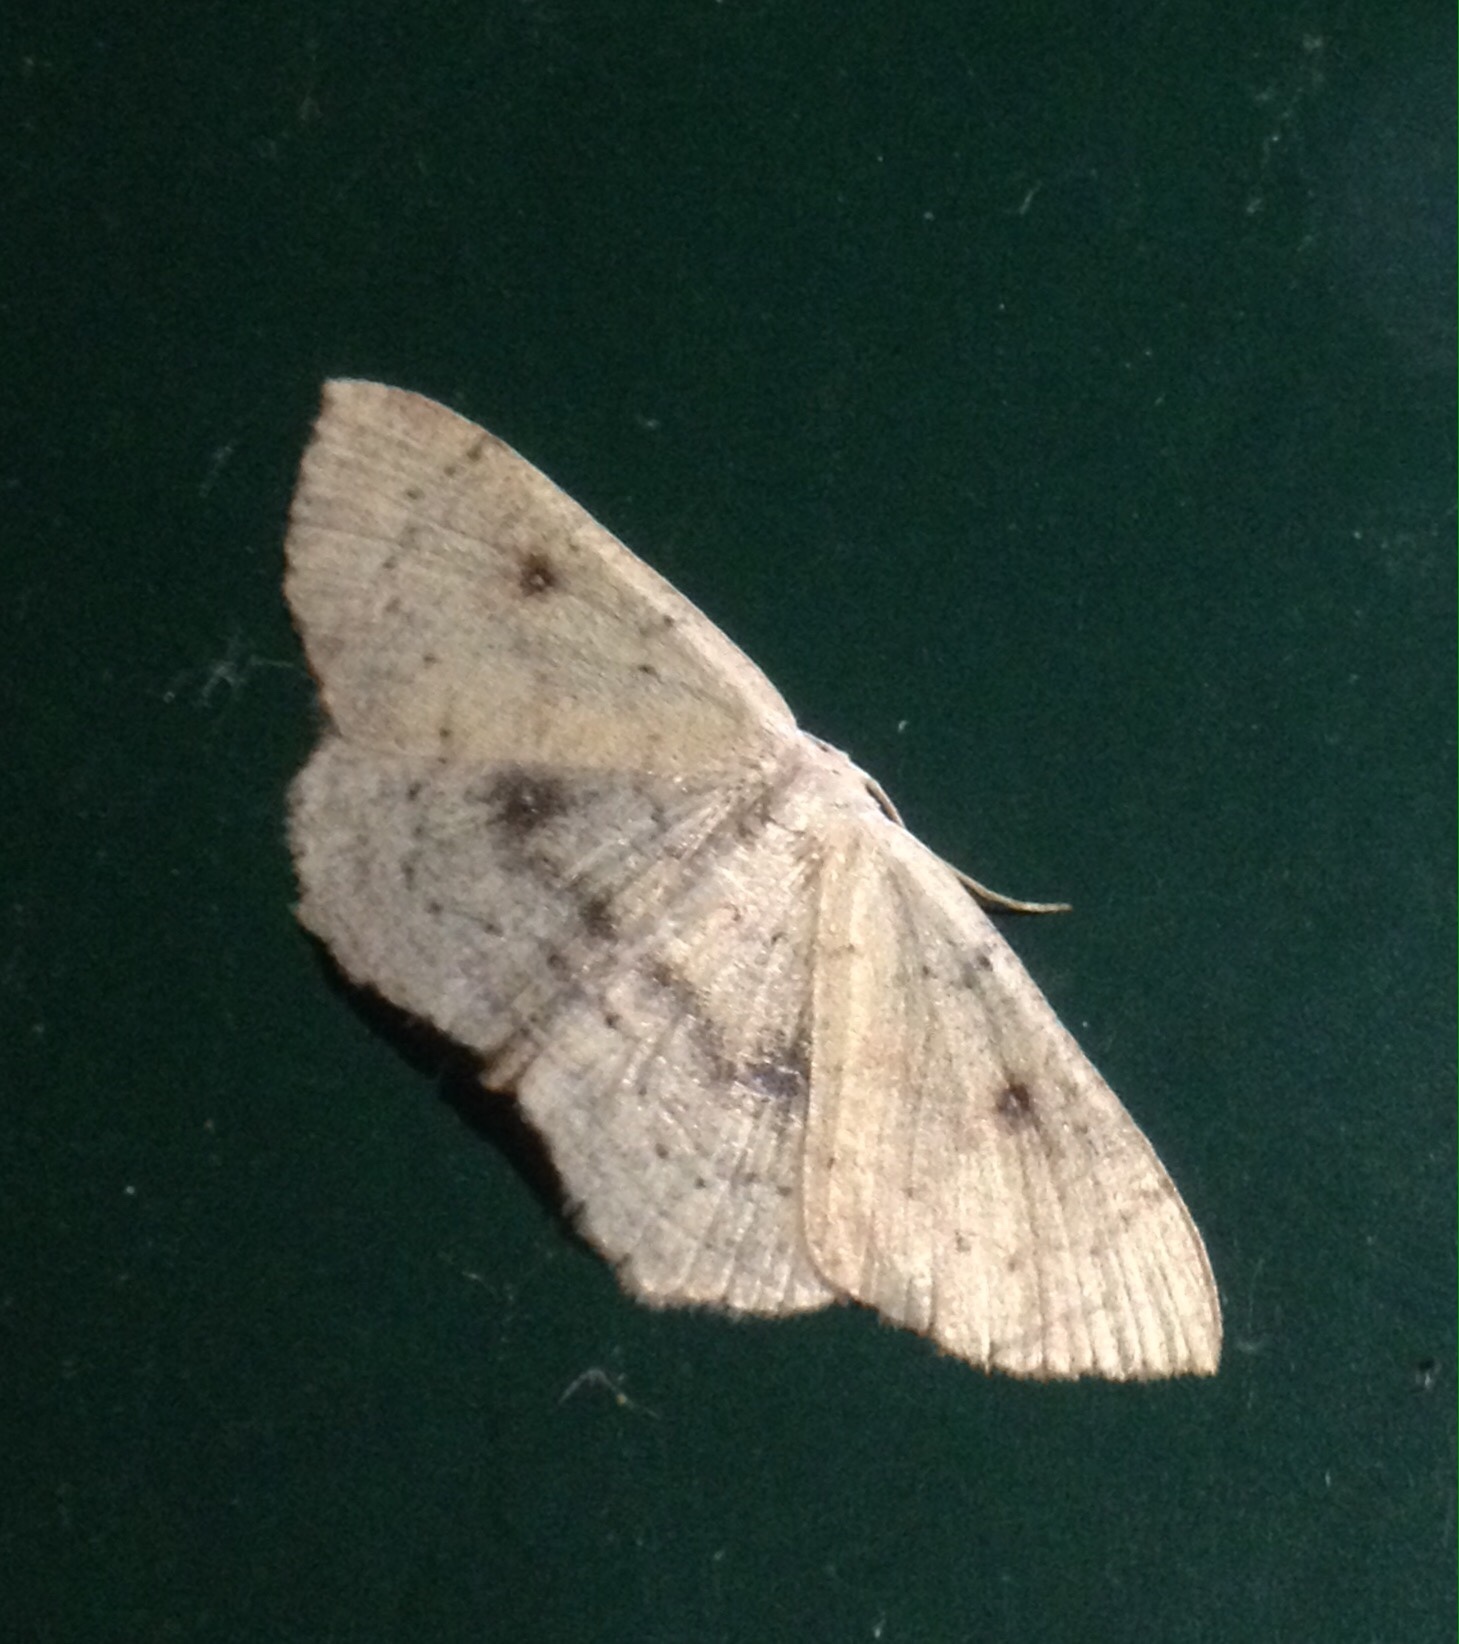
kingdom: Animalia
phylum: Arthropoda
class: Insecta
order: Lepidoptera
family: Geometridae
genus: Cyclophora
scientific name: Cyclophora albipunctata
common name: Birch mocha
